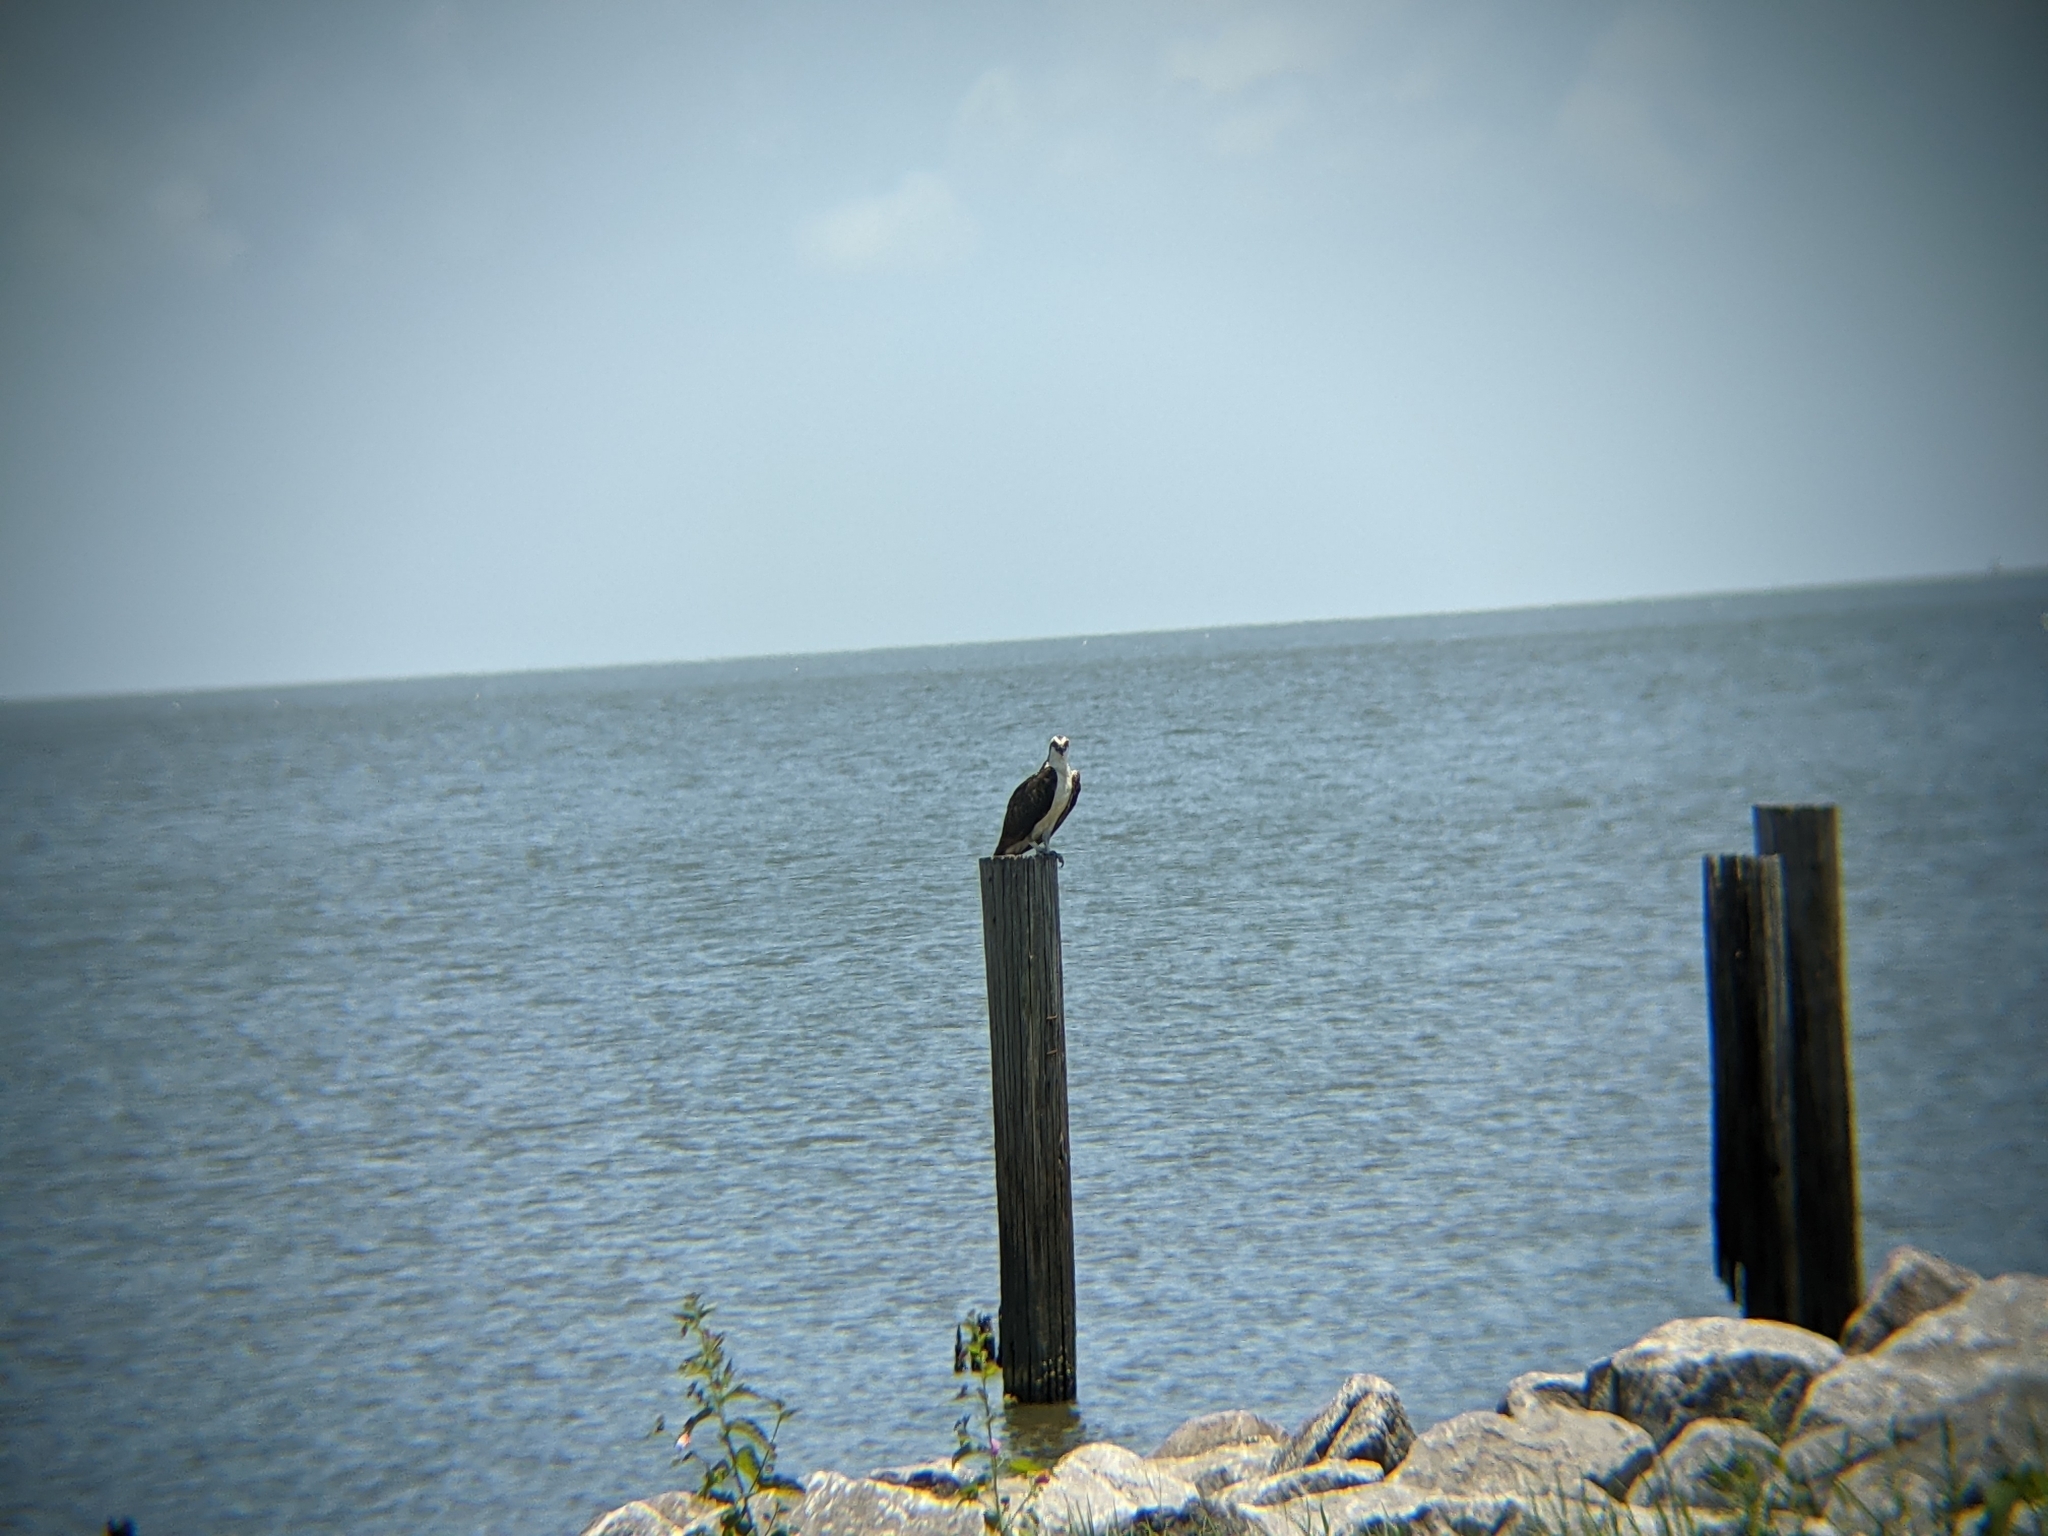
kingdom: Animalia
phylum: Chordata
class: Aves
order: Accipitriformes
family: Pandionidae
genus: Pandion
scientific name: Pandion haliaetus
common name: Osprey
